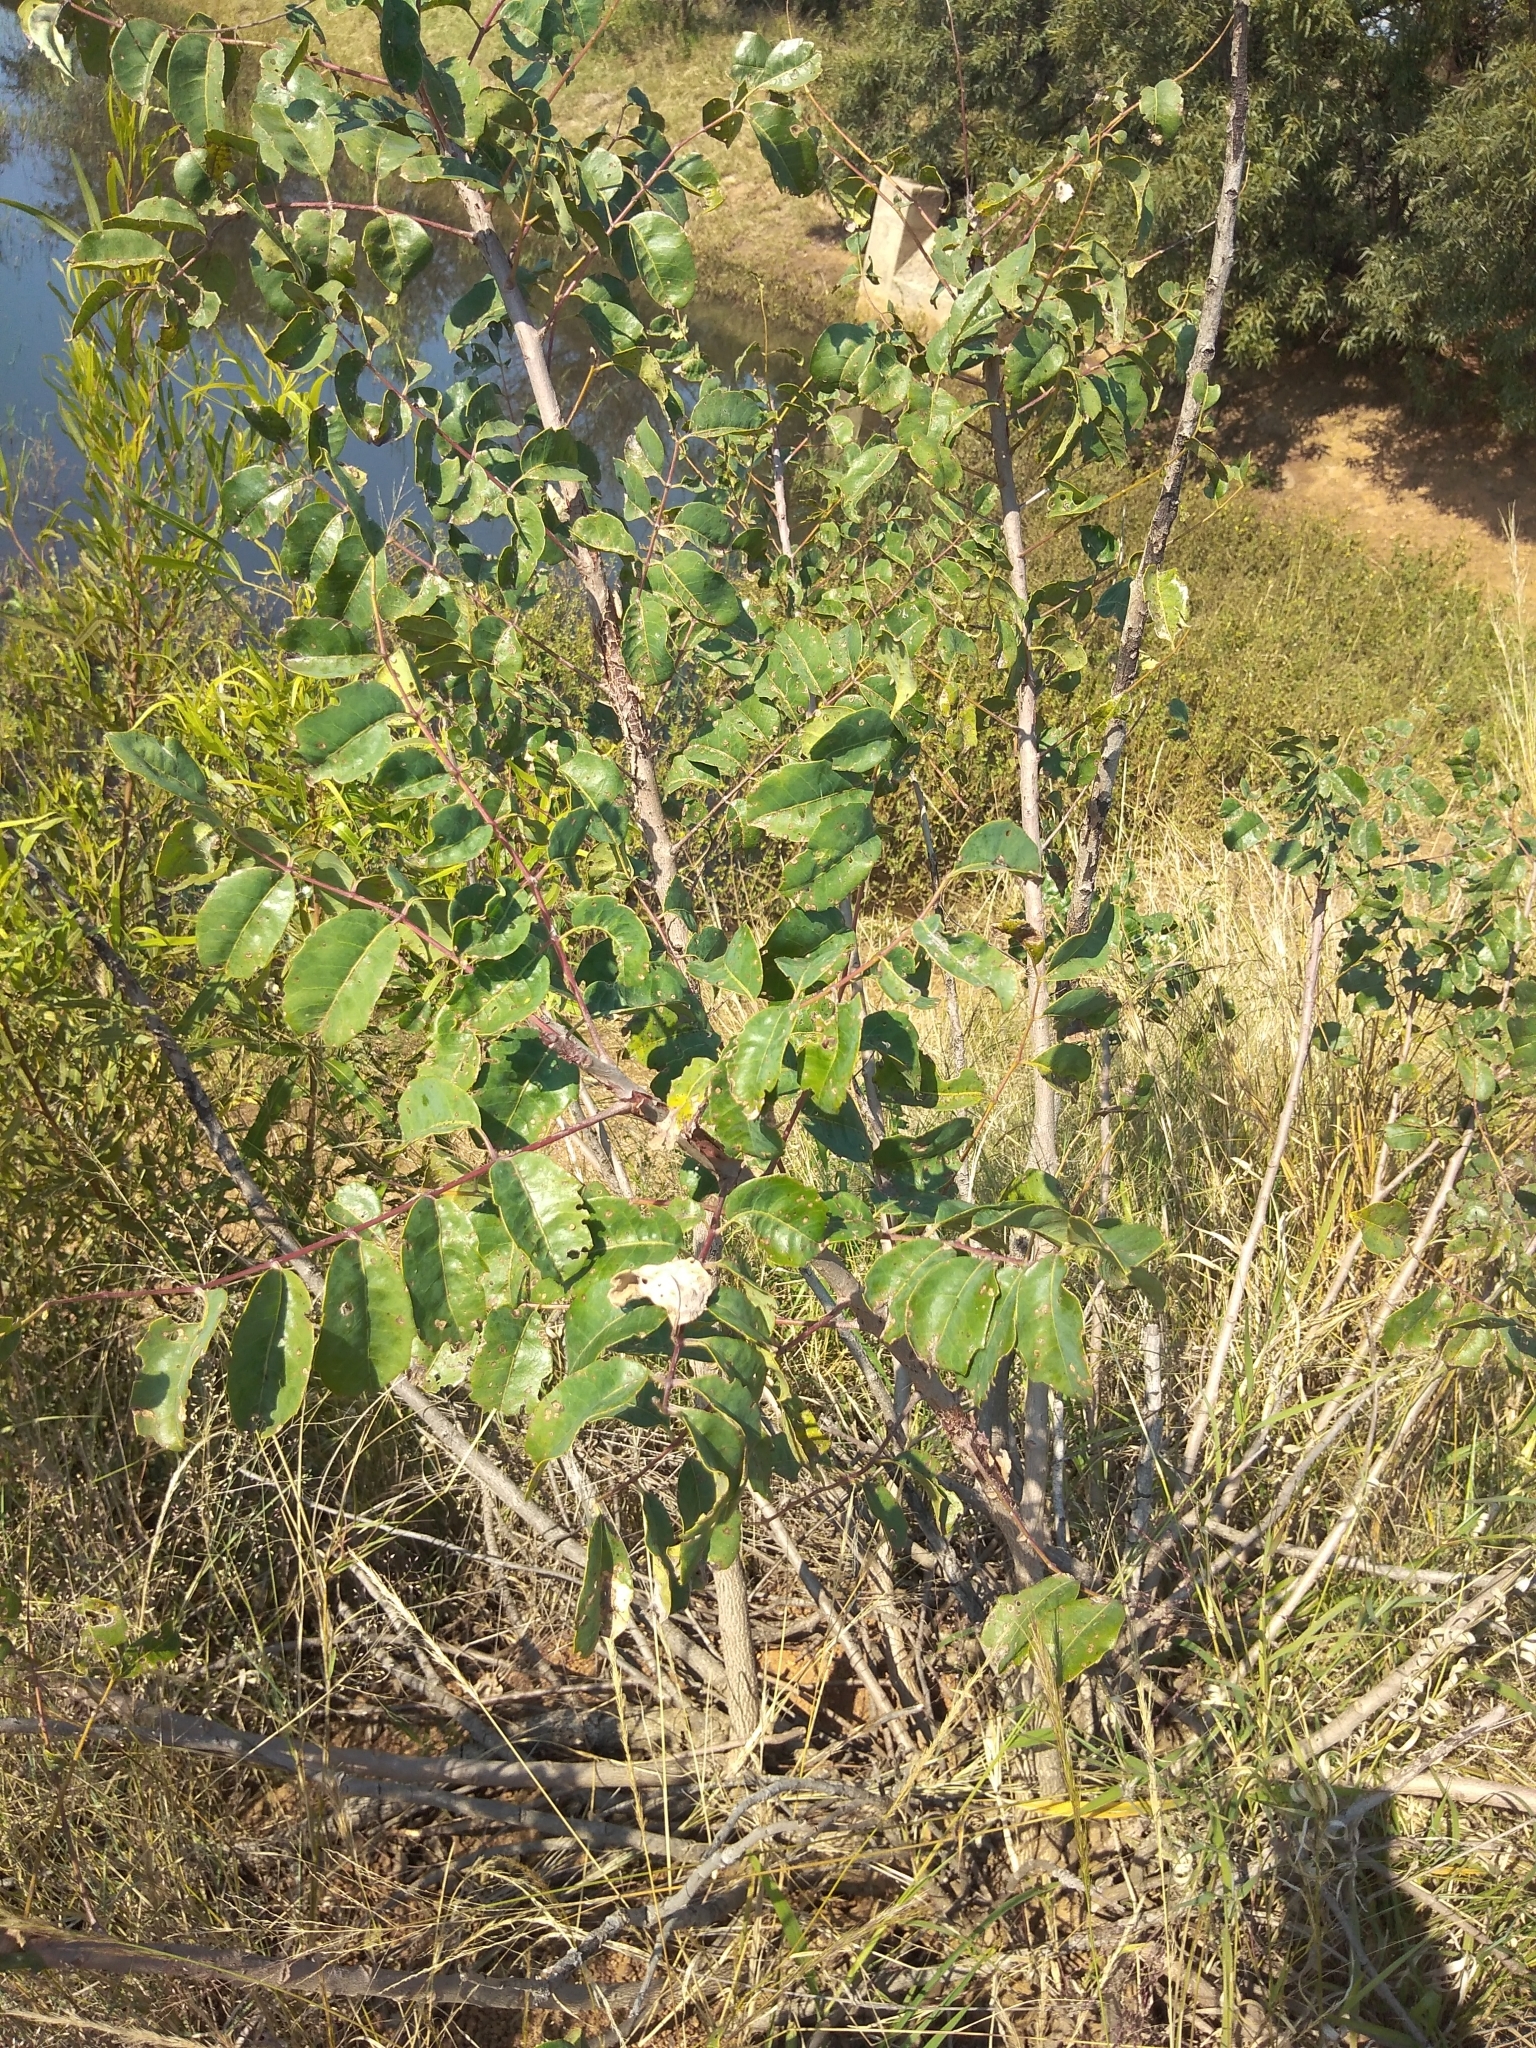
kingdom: Plantae
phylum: Tracheophyta
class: Magnoliopsida
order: Sapindales
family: Anacardiaceae
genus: Sclerocarya
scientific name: Sclerocarya birrea
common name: Marula
